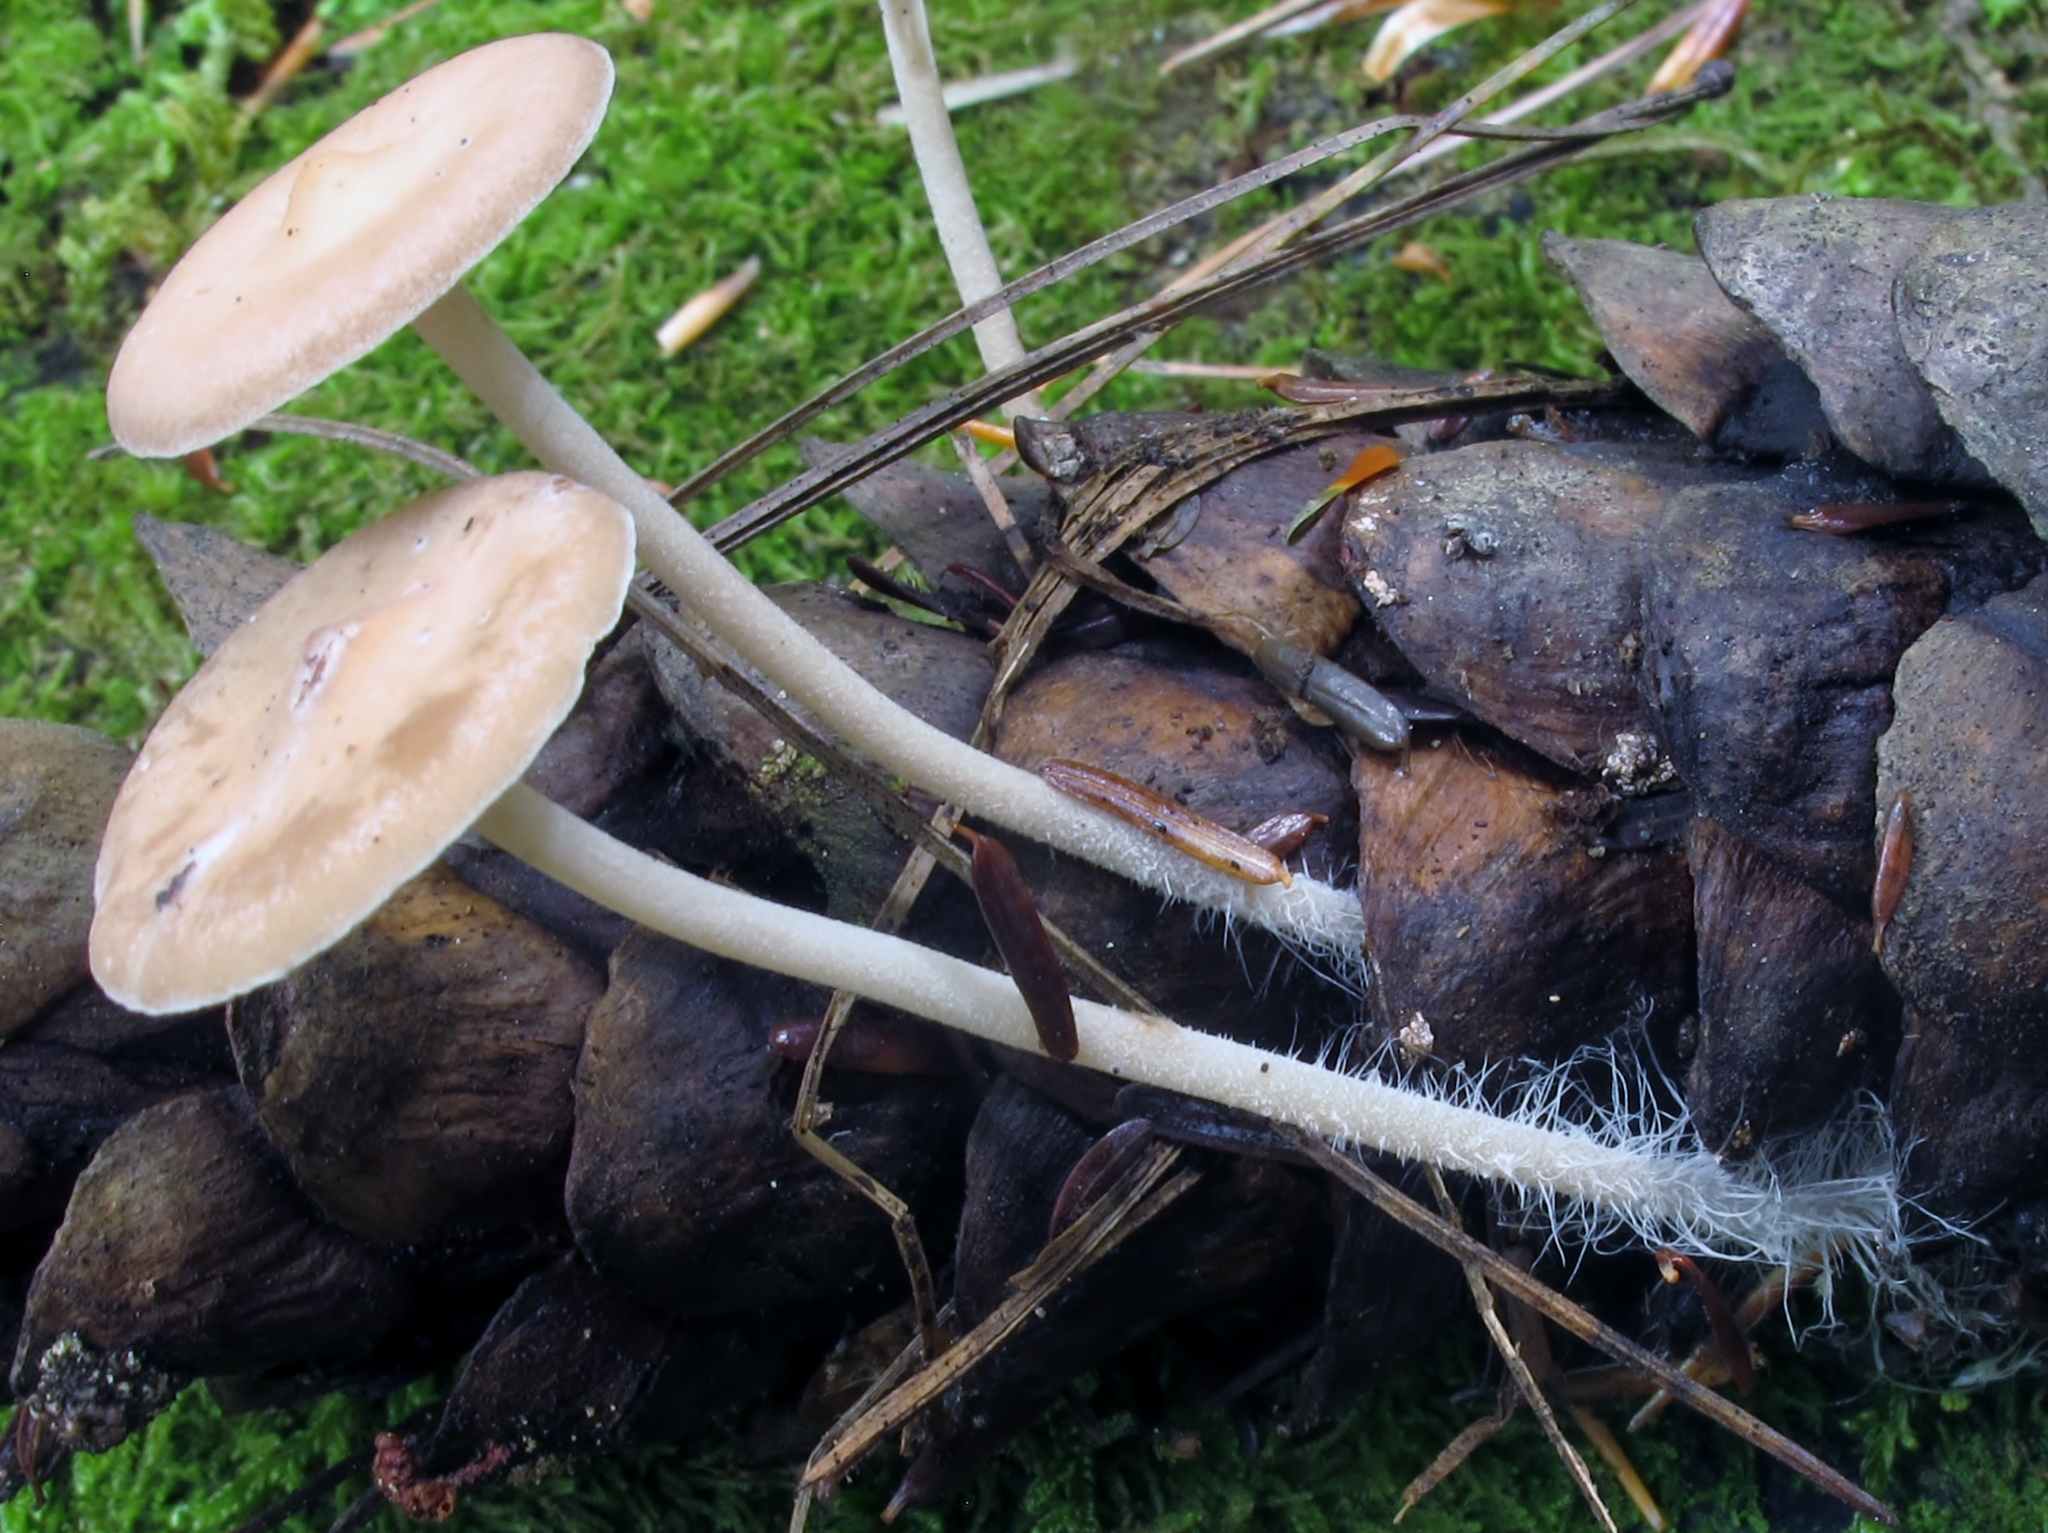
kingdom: Fungi
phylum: Basidiomycota
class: Agaricomycetes
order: Agaricales
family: Marasmiaceae
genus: Baeospora
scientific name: Baeospora myosura
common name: Conifercone cap
